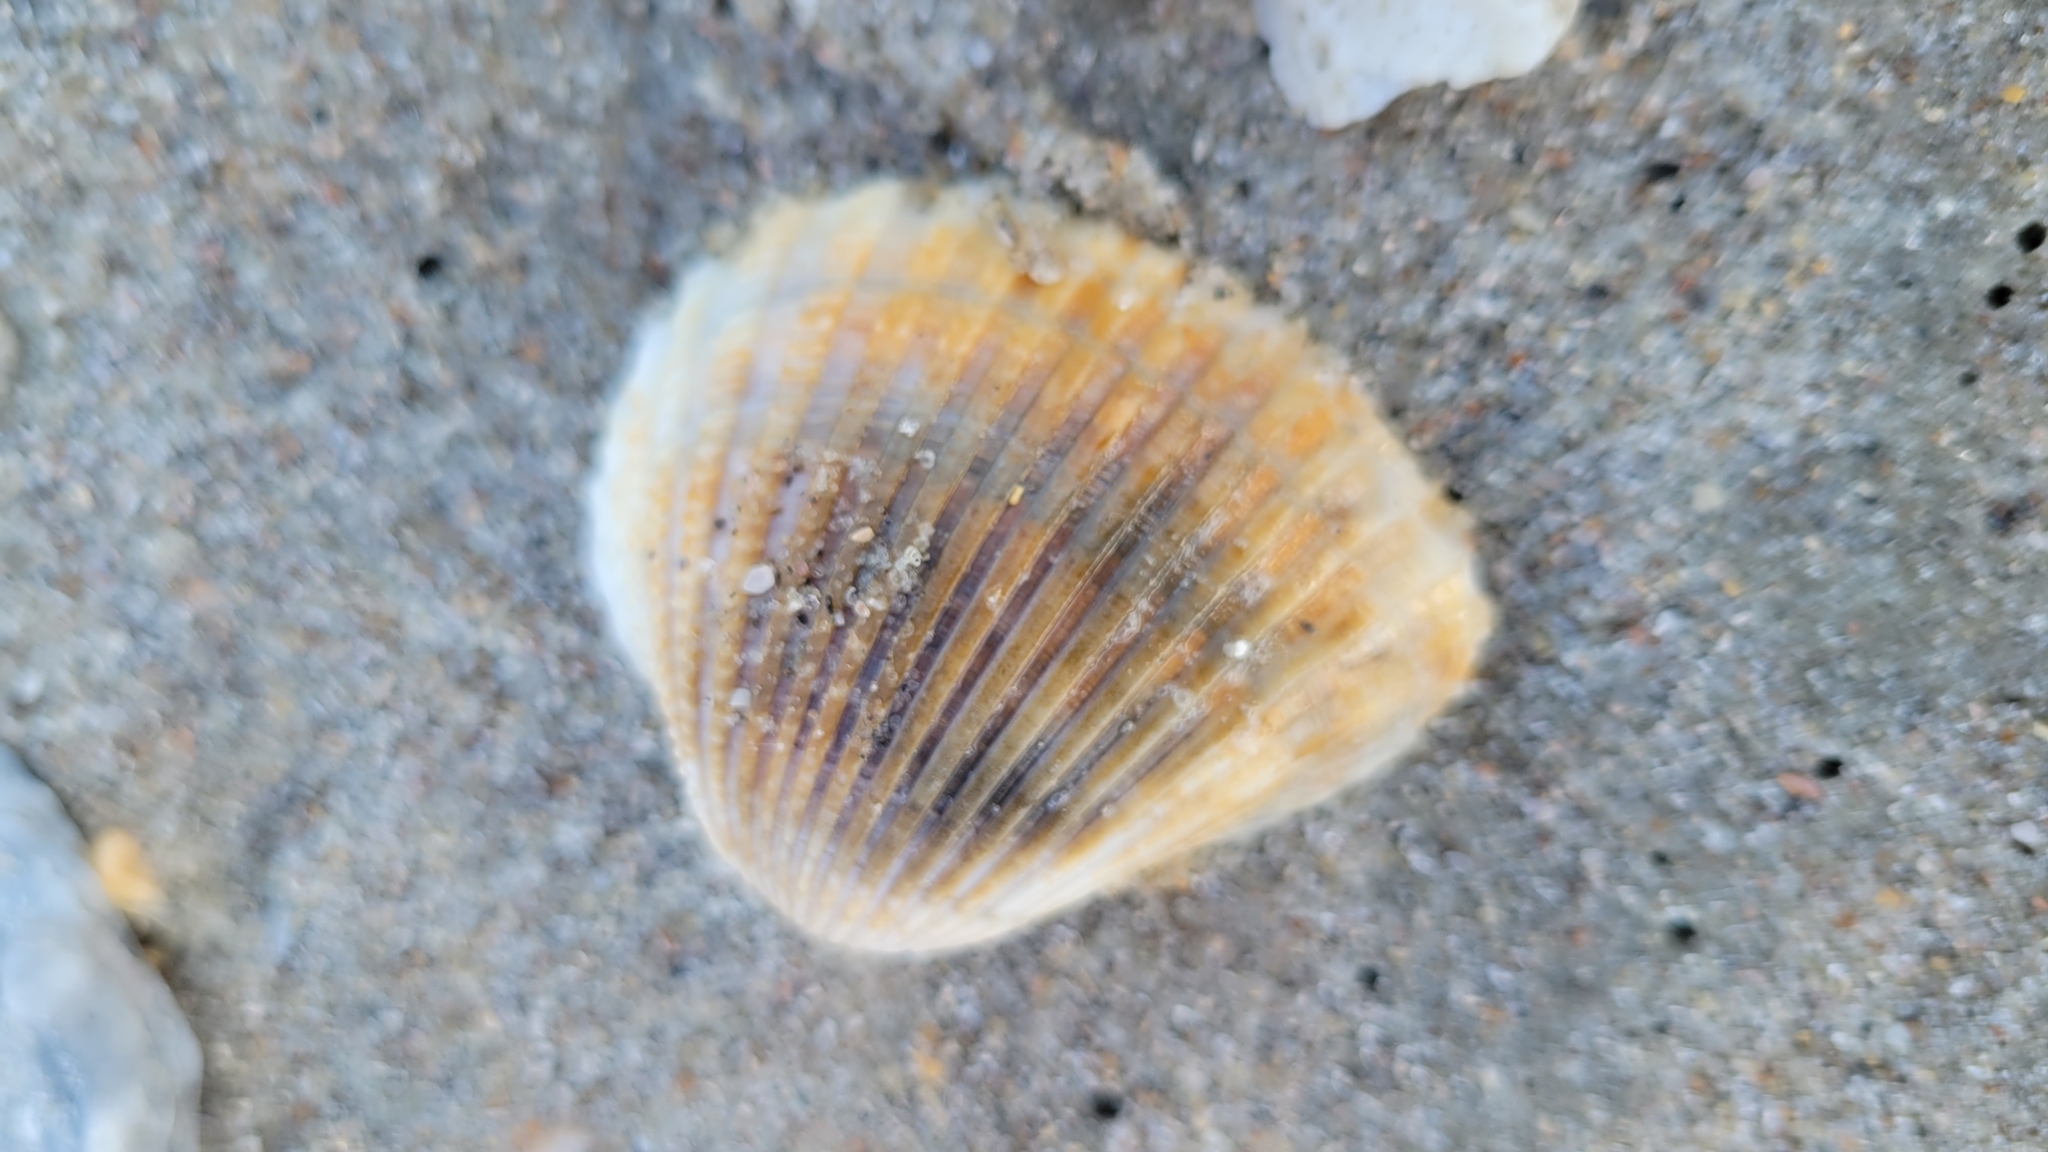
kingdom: Animalia
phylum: Mollusca
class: Bivalvia
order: Arcida
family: Arcidae
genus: Anadara
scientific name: Anadara brasiliana
